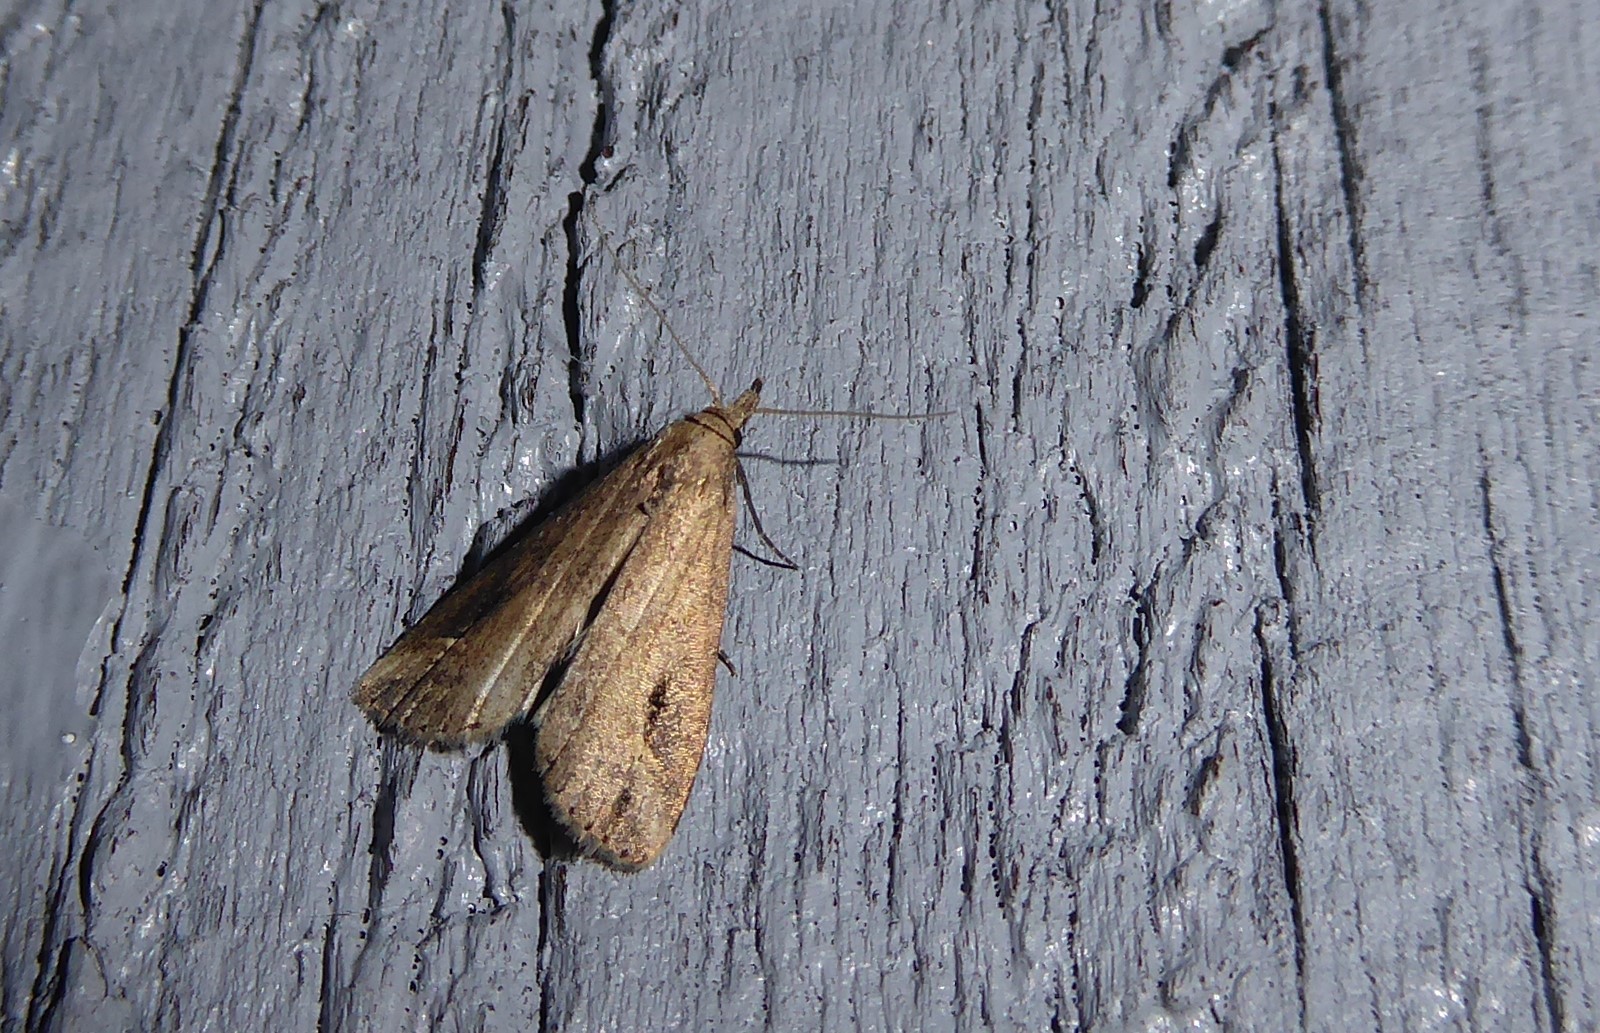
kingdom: Animalia
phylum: Arthropoda
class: Insecta
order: Lepidoptera
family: Erebidae
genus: Schrankia
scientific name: Schrankia costaestrigalis
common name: Pinion-streaked snout
